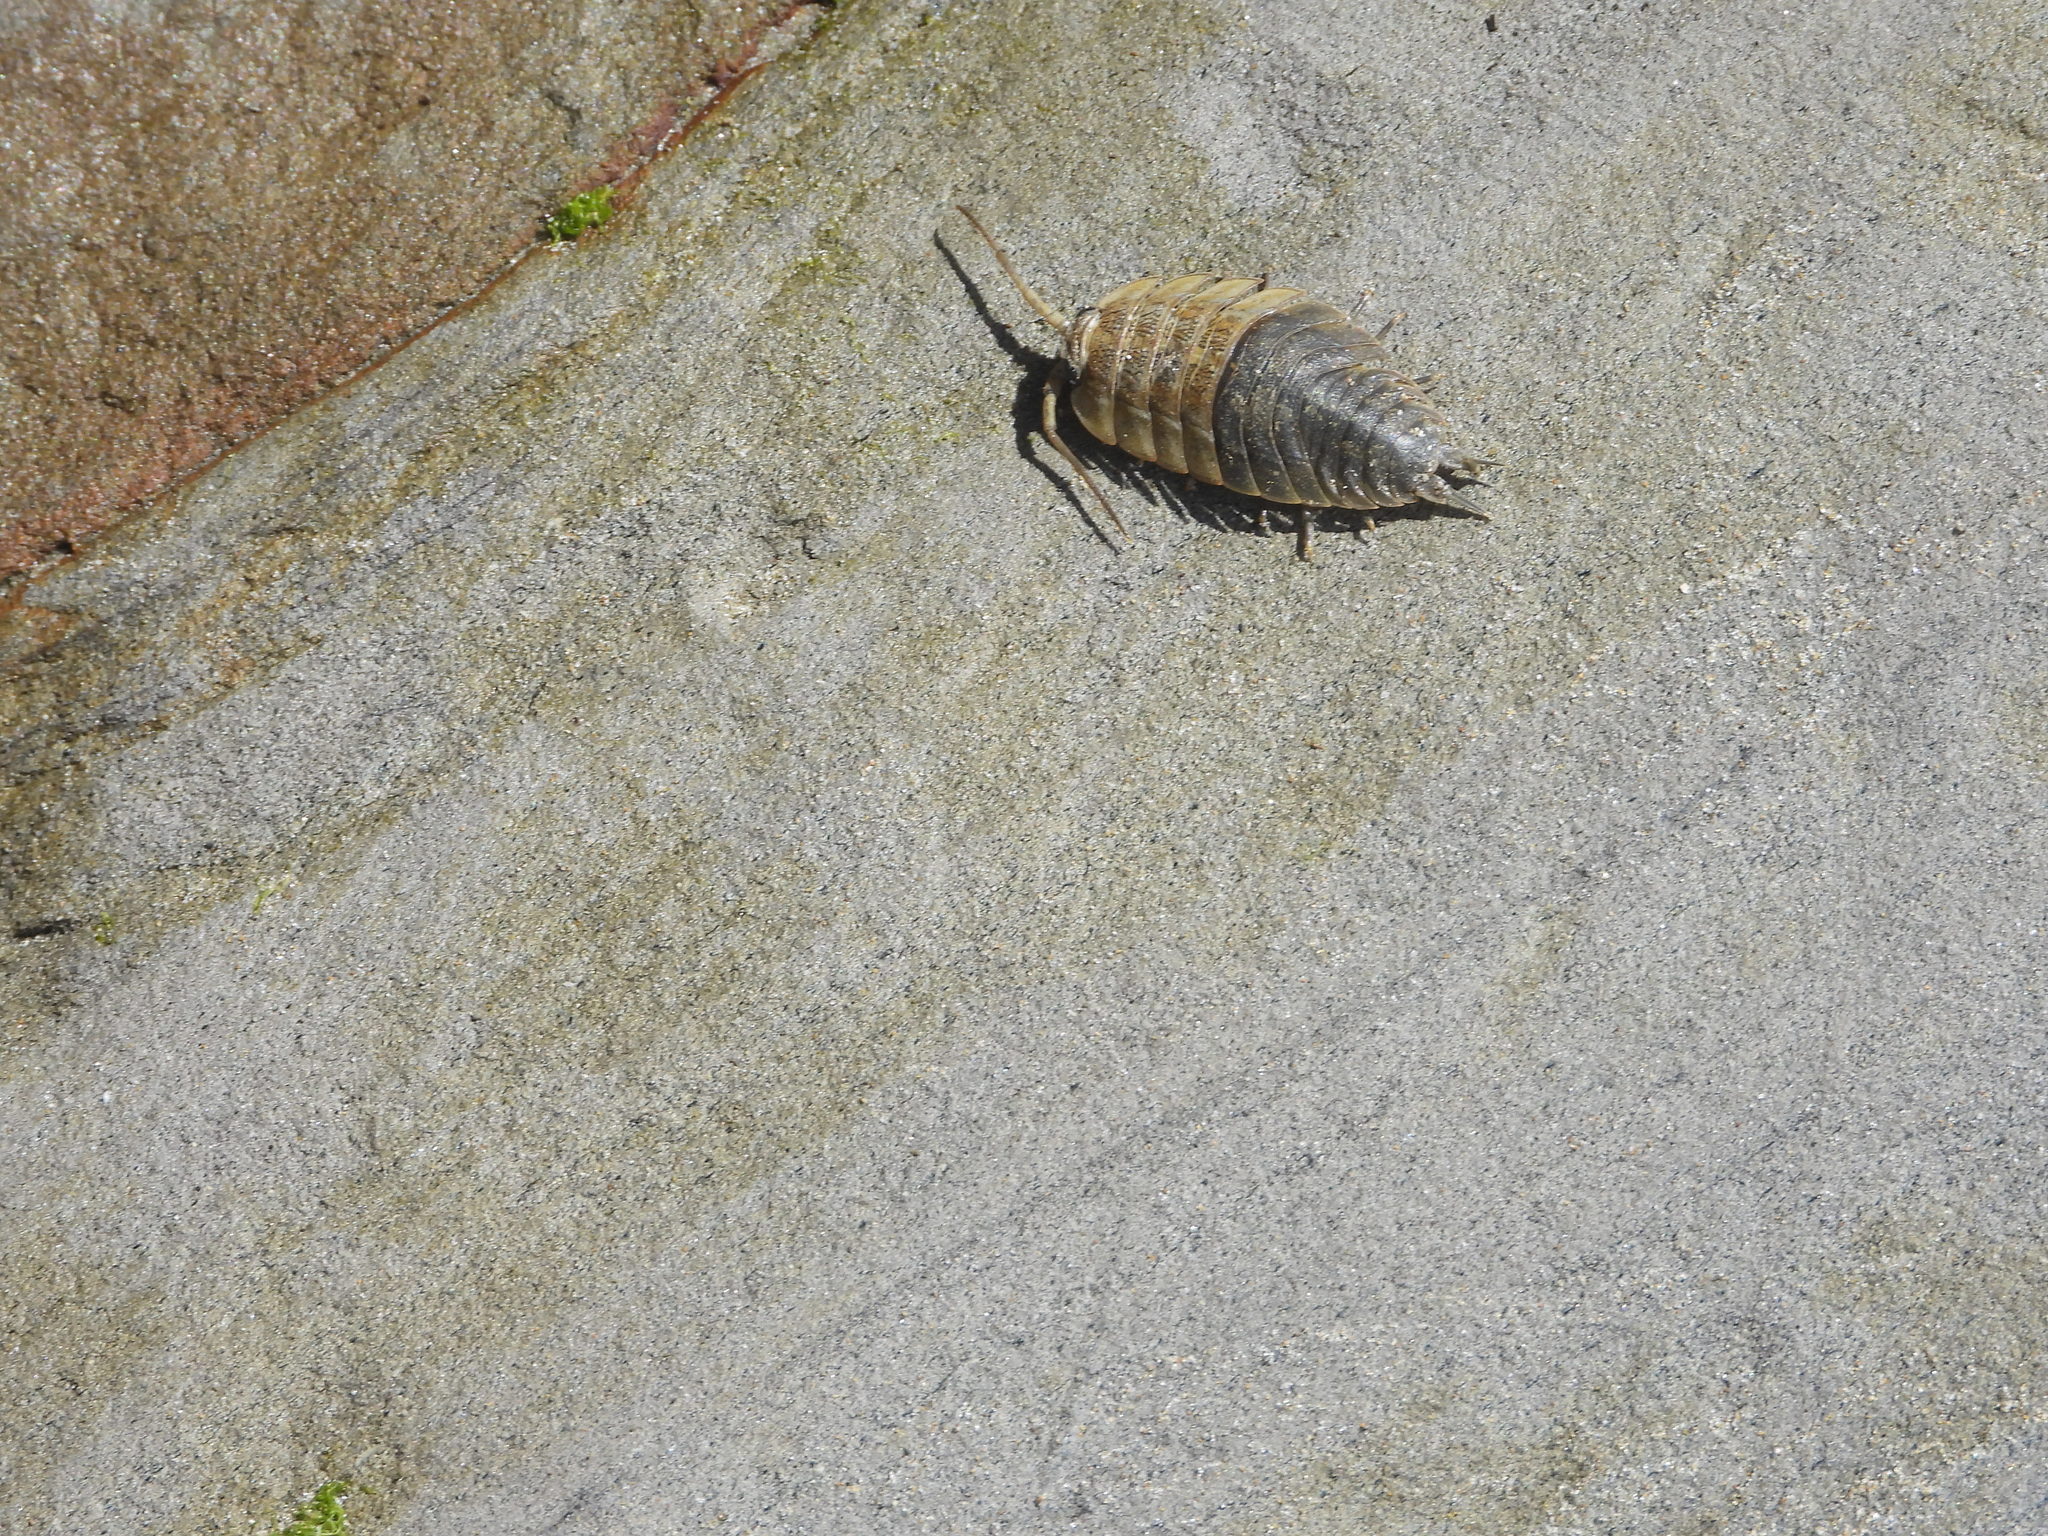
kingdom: Animalia
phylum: Arthropoda
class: Malacostraca
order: Isopoda
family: Ligiidae
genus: Ligia
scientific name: Ligia pallasii
